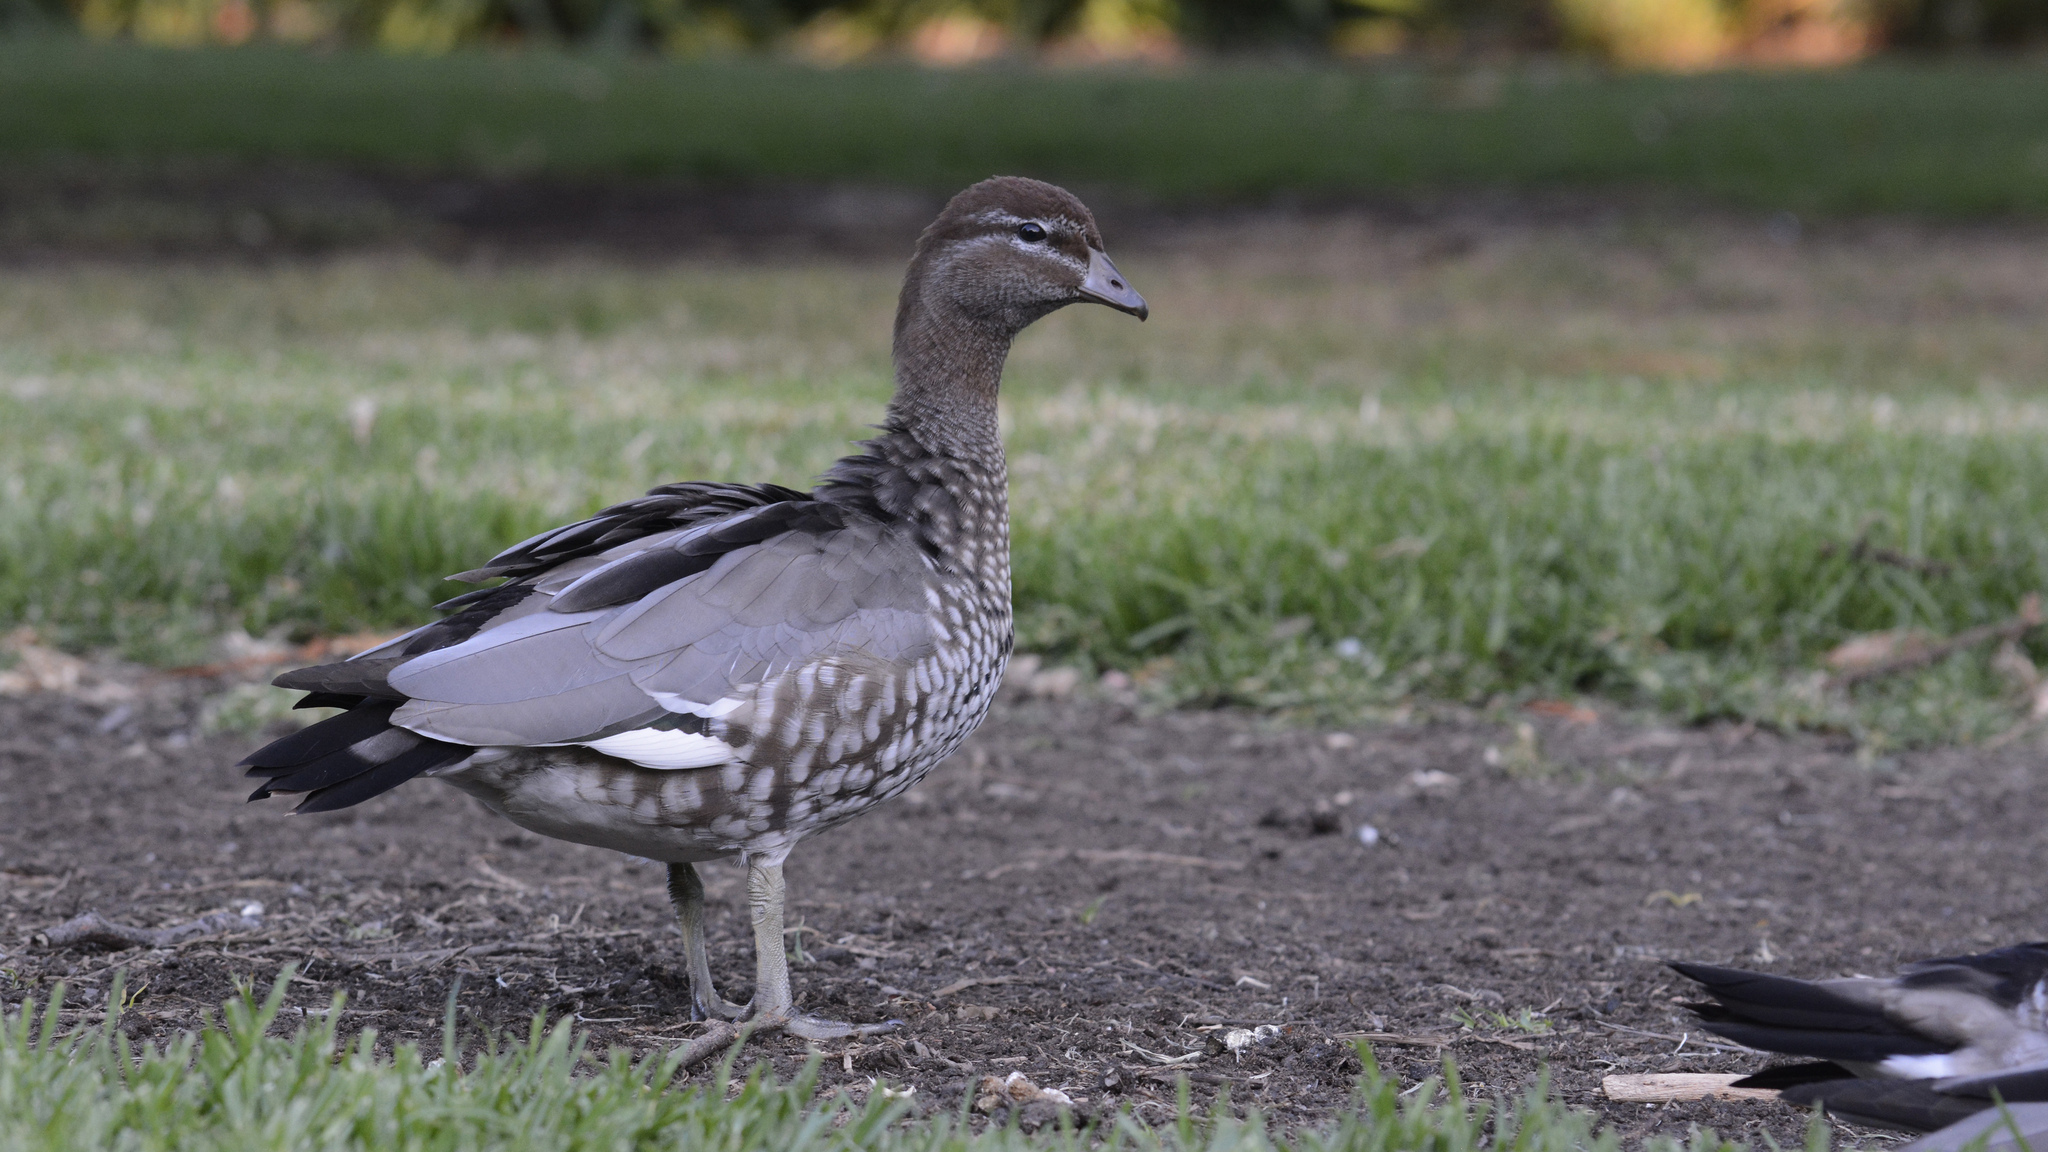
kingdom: Animalia
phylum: Chordata
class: Aves
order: Anseriformes
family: Anatidae
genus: Chenonetta
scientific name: Chenonetta jubata
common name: Maned duck
